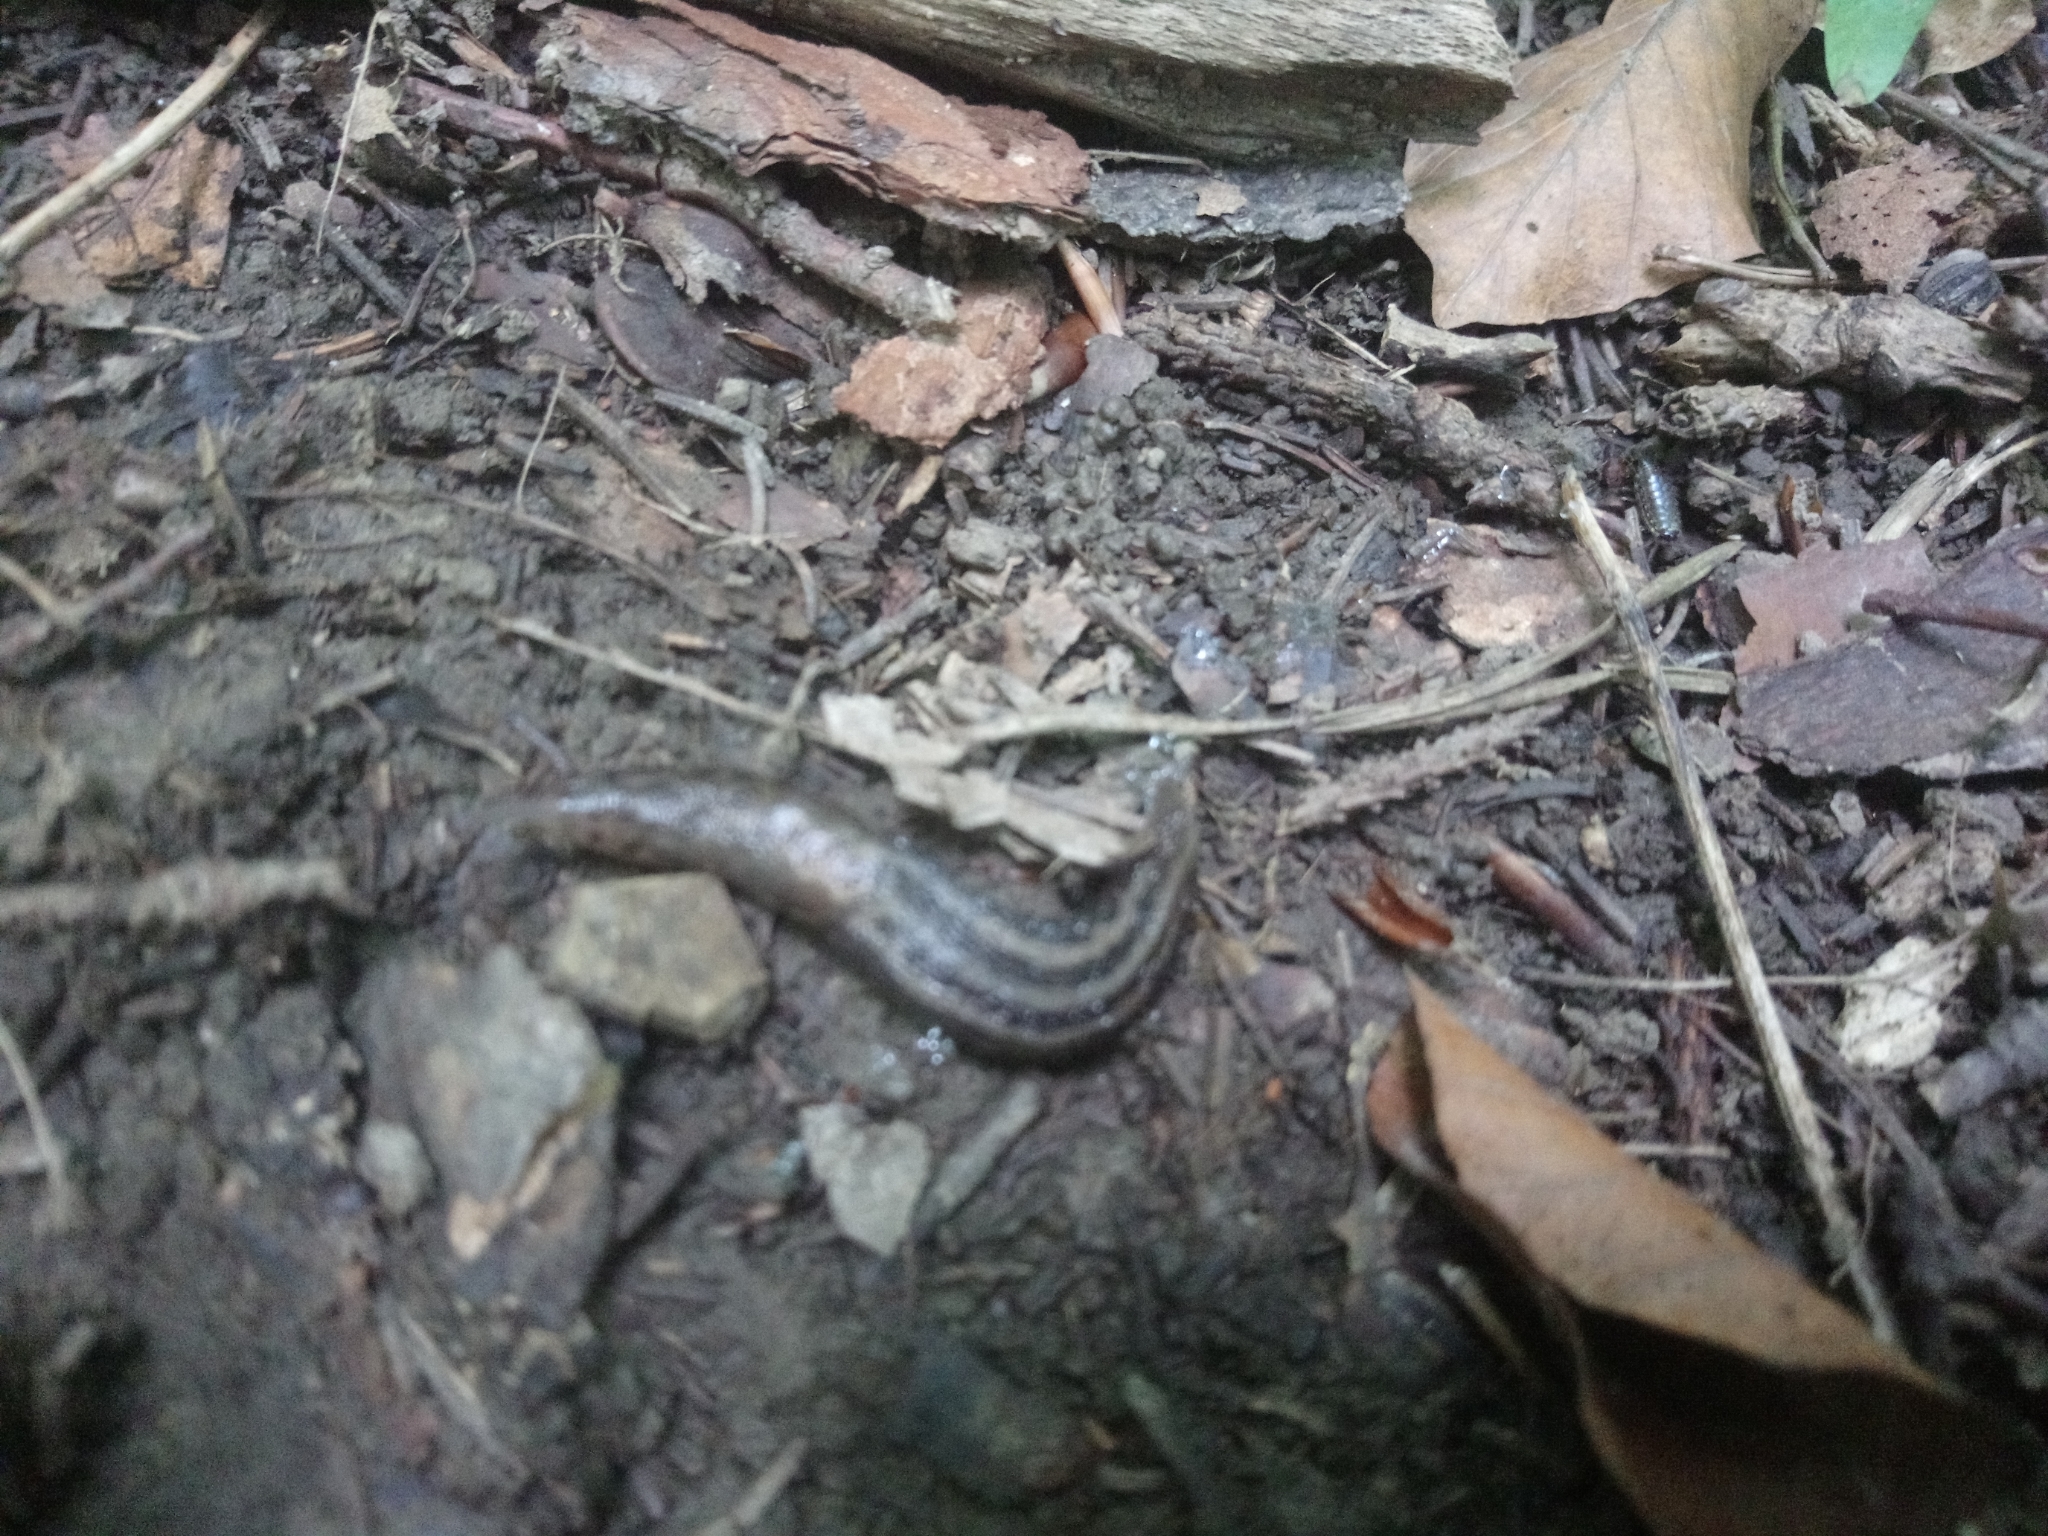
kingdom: Animalia
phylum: Mollusca
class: Gastropoda
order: Stylommatophora
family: Limacidae
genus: Limax
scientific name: Limax maximus
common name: Great grey slug
